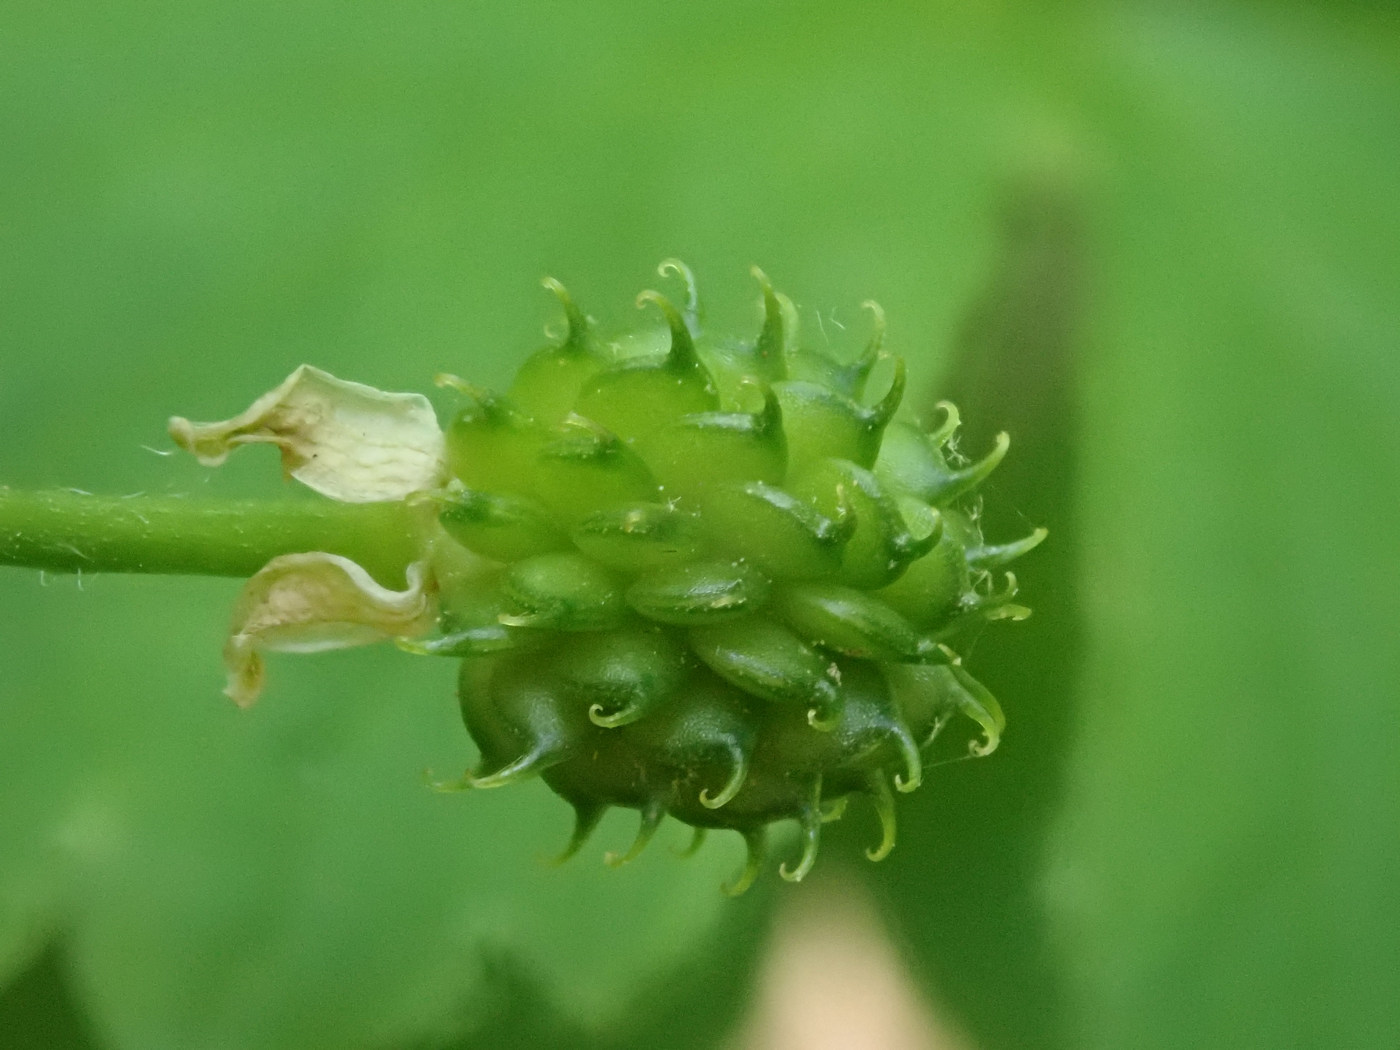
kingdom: Plantae
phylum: Tracheophyta
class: Magnoliopsida
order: Ranunculales
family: Ranunculaceae
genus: Ranunculus
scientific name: Ranunculus recurvatus
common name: Blisterwort
